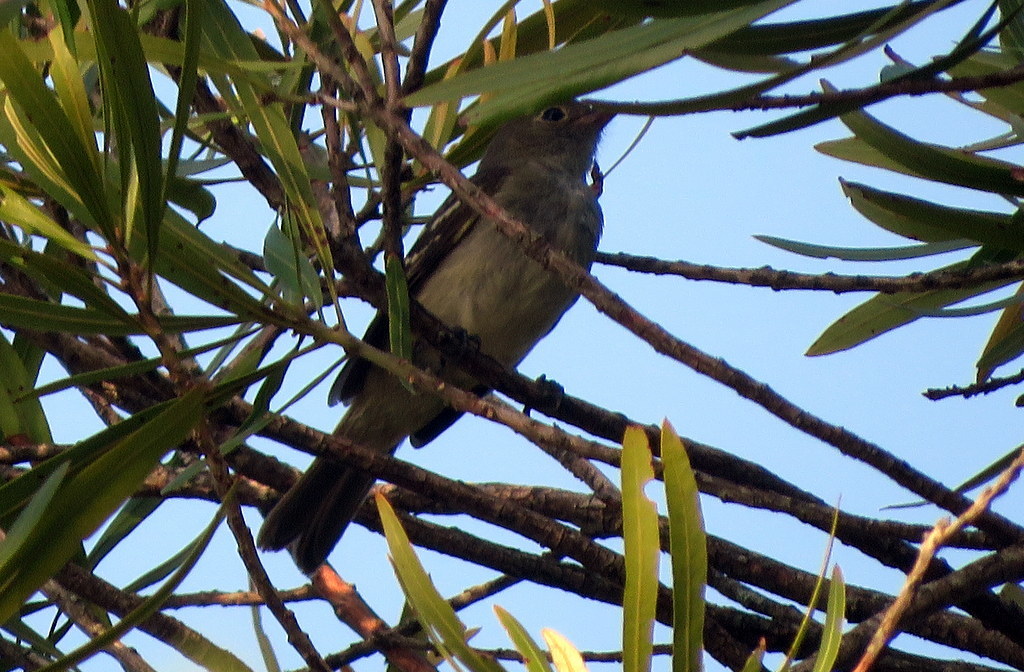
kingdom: Animalia
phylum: Chordata
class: Aves
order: Passeriformes
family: Tyrannidae
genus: Elaenia
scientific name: Elaenia parvirostris
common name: Small-billed elaenia
